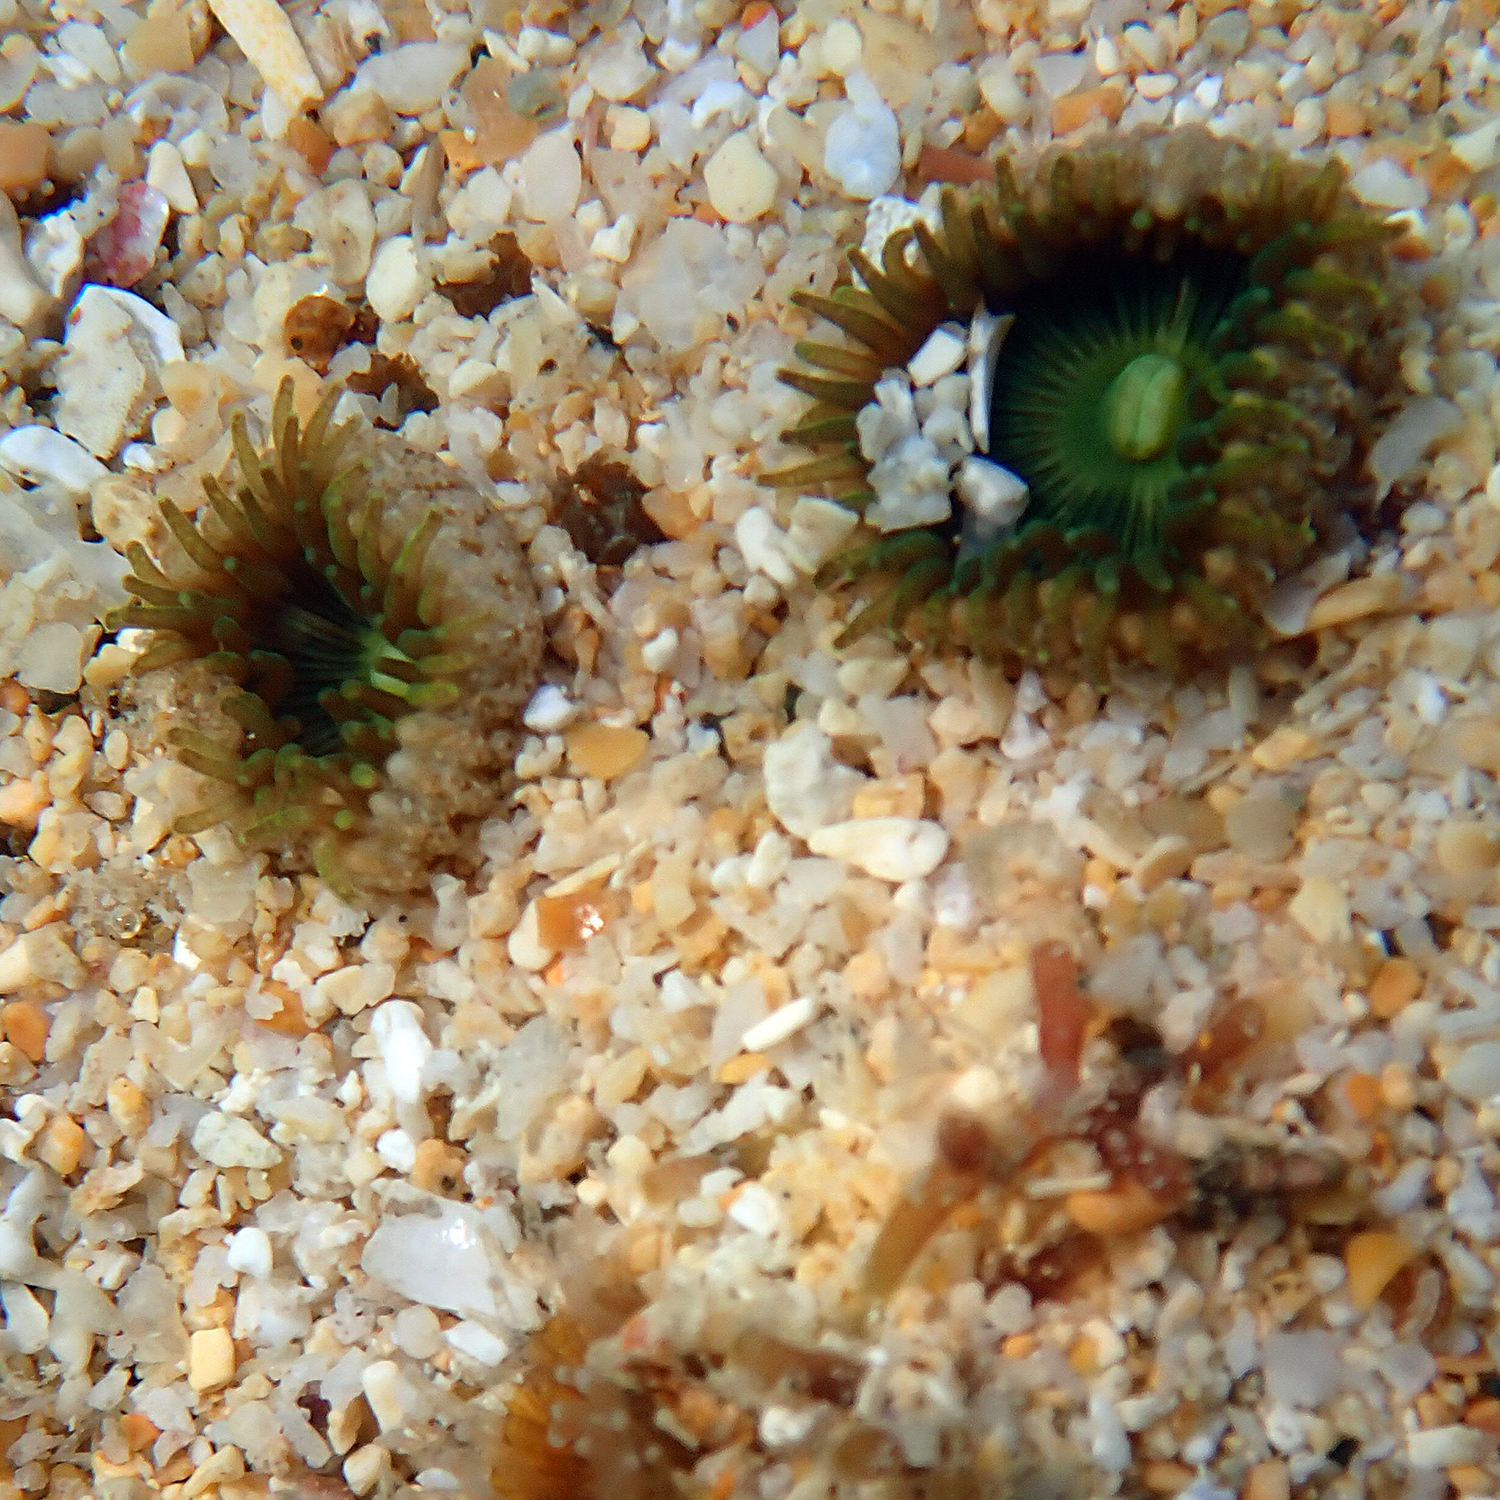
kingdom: Animalia
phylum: Cnidaria
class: Anthozoa
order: Zoantharia
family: Sphenopidae
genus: Palythoa
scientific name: Palythoa mutuki
